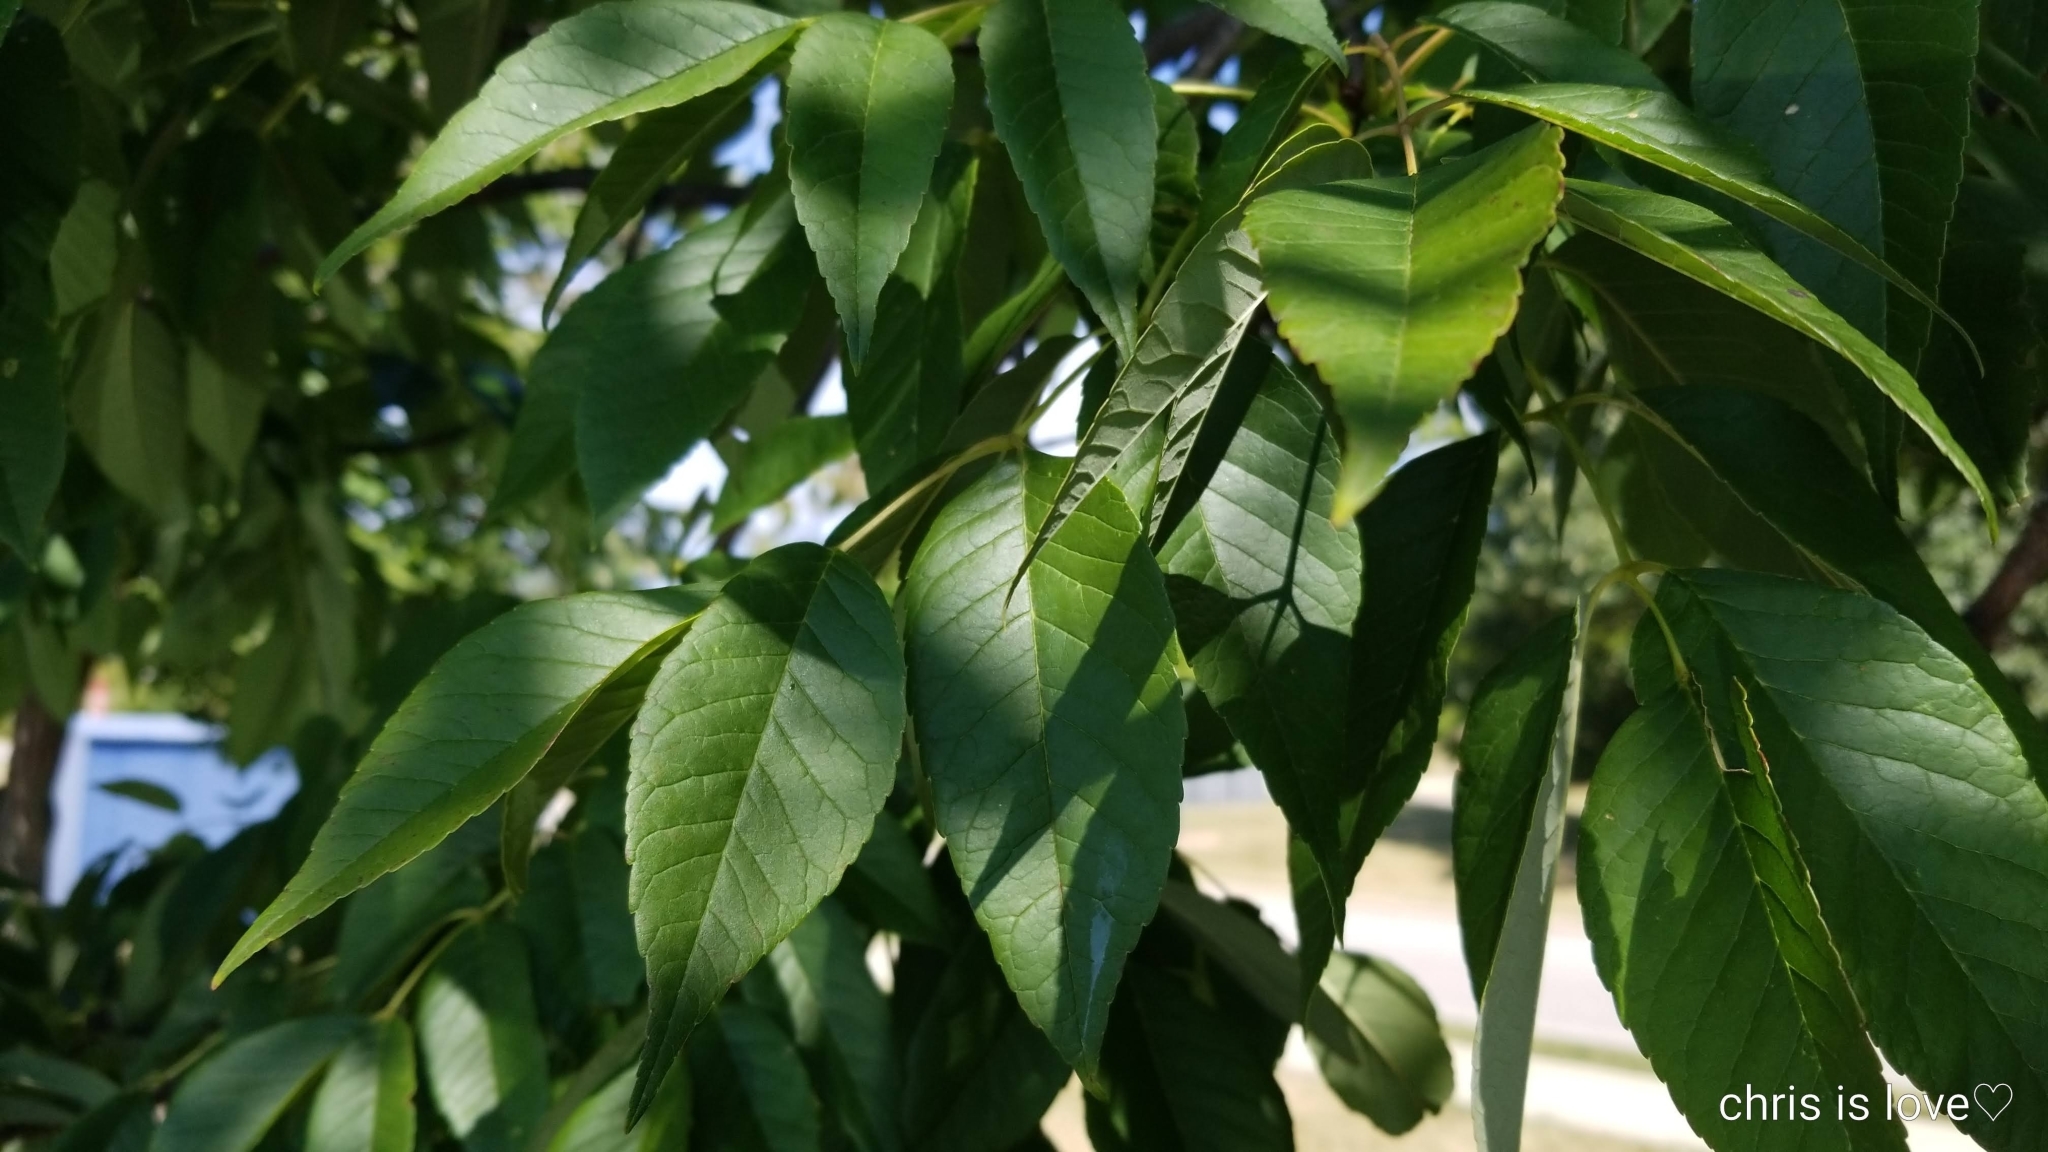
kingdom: Plantae
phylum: Tracheophyta
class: Magnoliopsida
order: Lamiales
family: Oleaceae
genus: Fraxinus
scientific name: Fraxinus americana
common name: White ash
